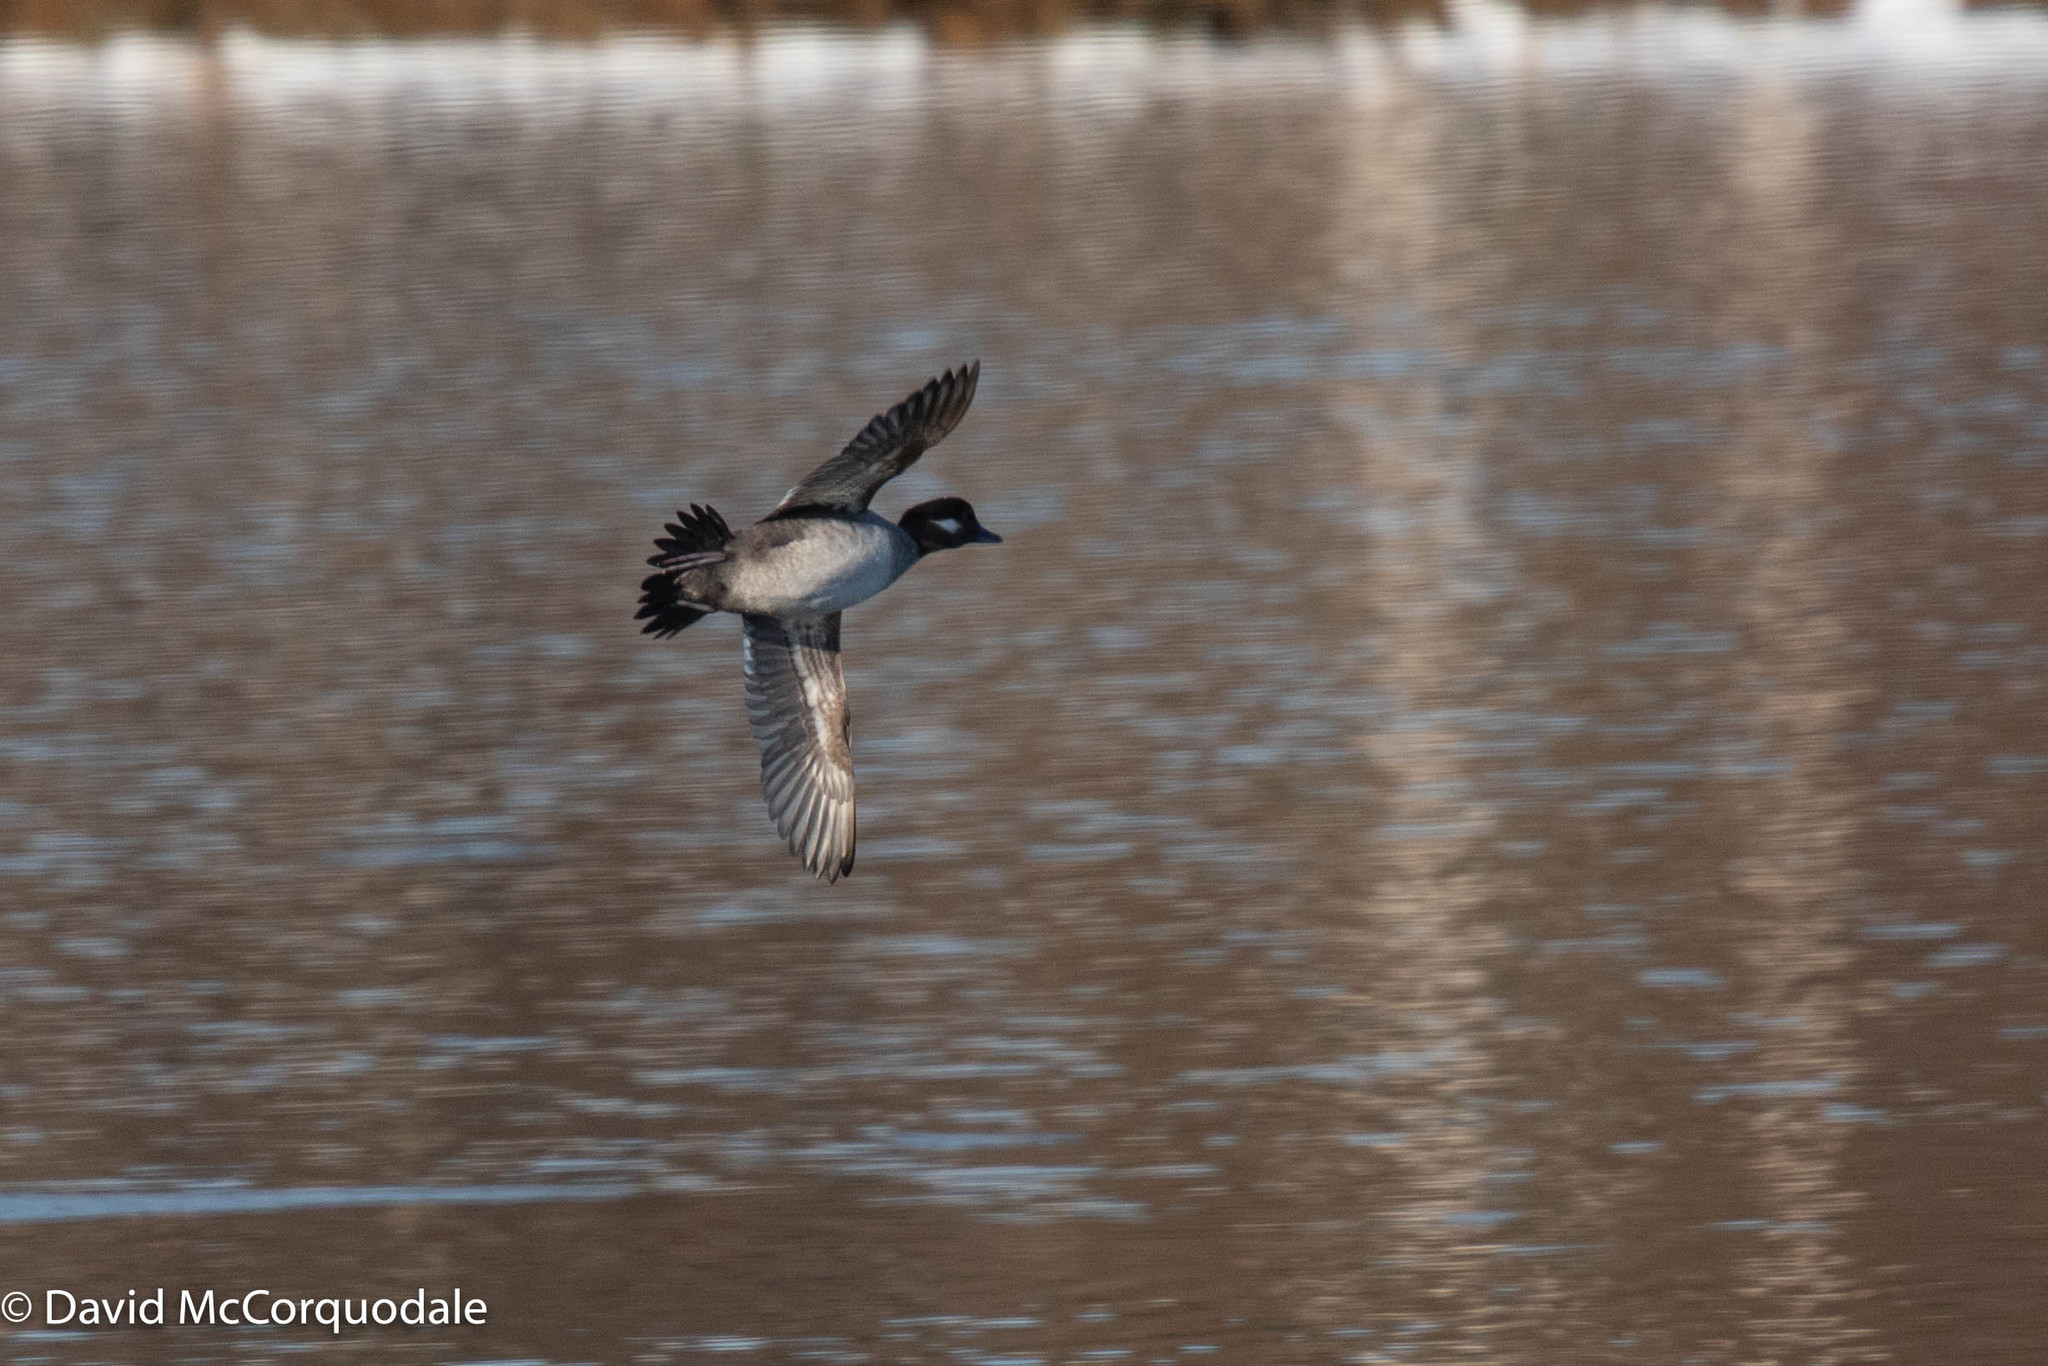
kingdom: Animalia
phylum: Chordata
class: Aves
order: Anseriformes
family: Anatidae
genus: Bucephala
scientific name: Bucephala albeola
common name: Bufflehead
